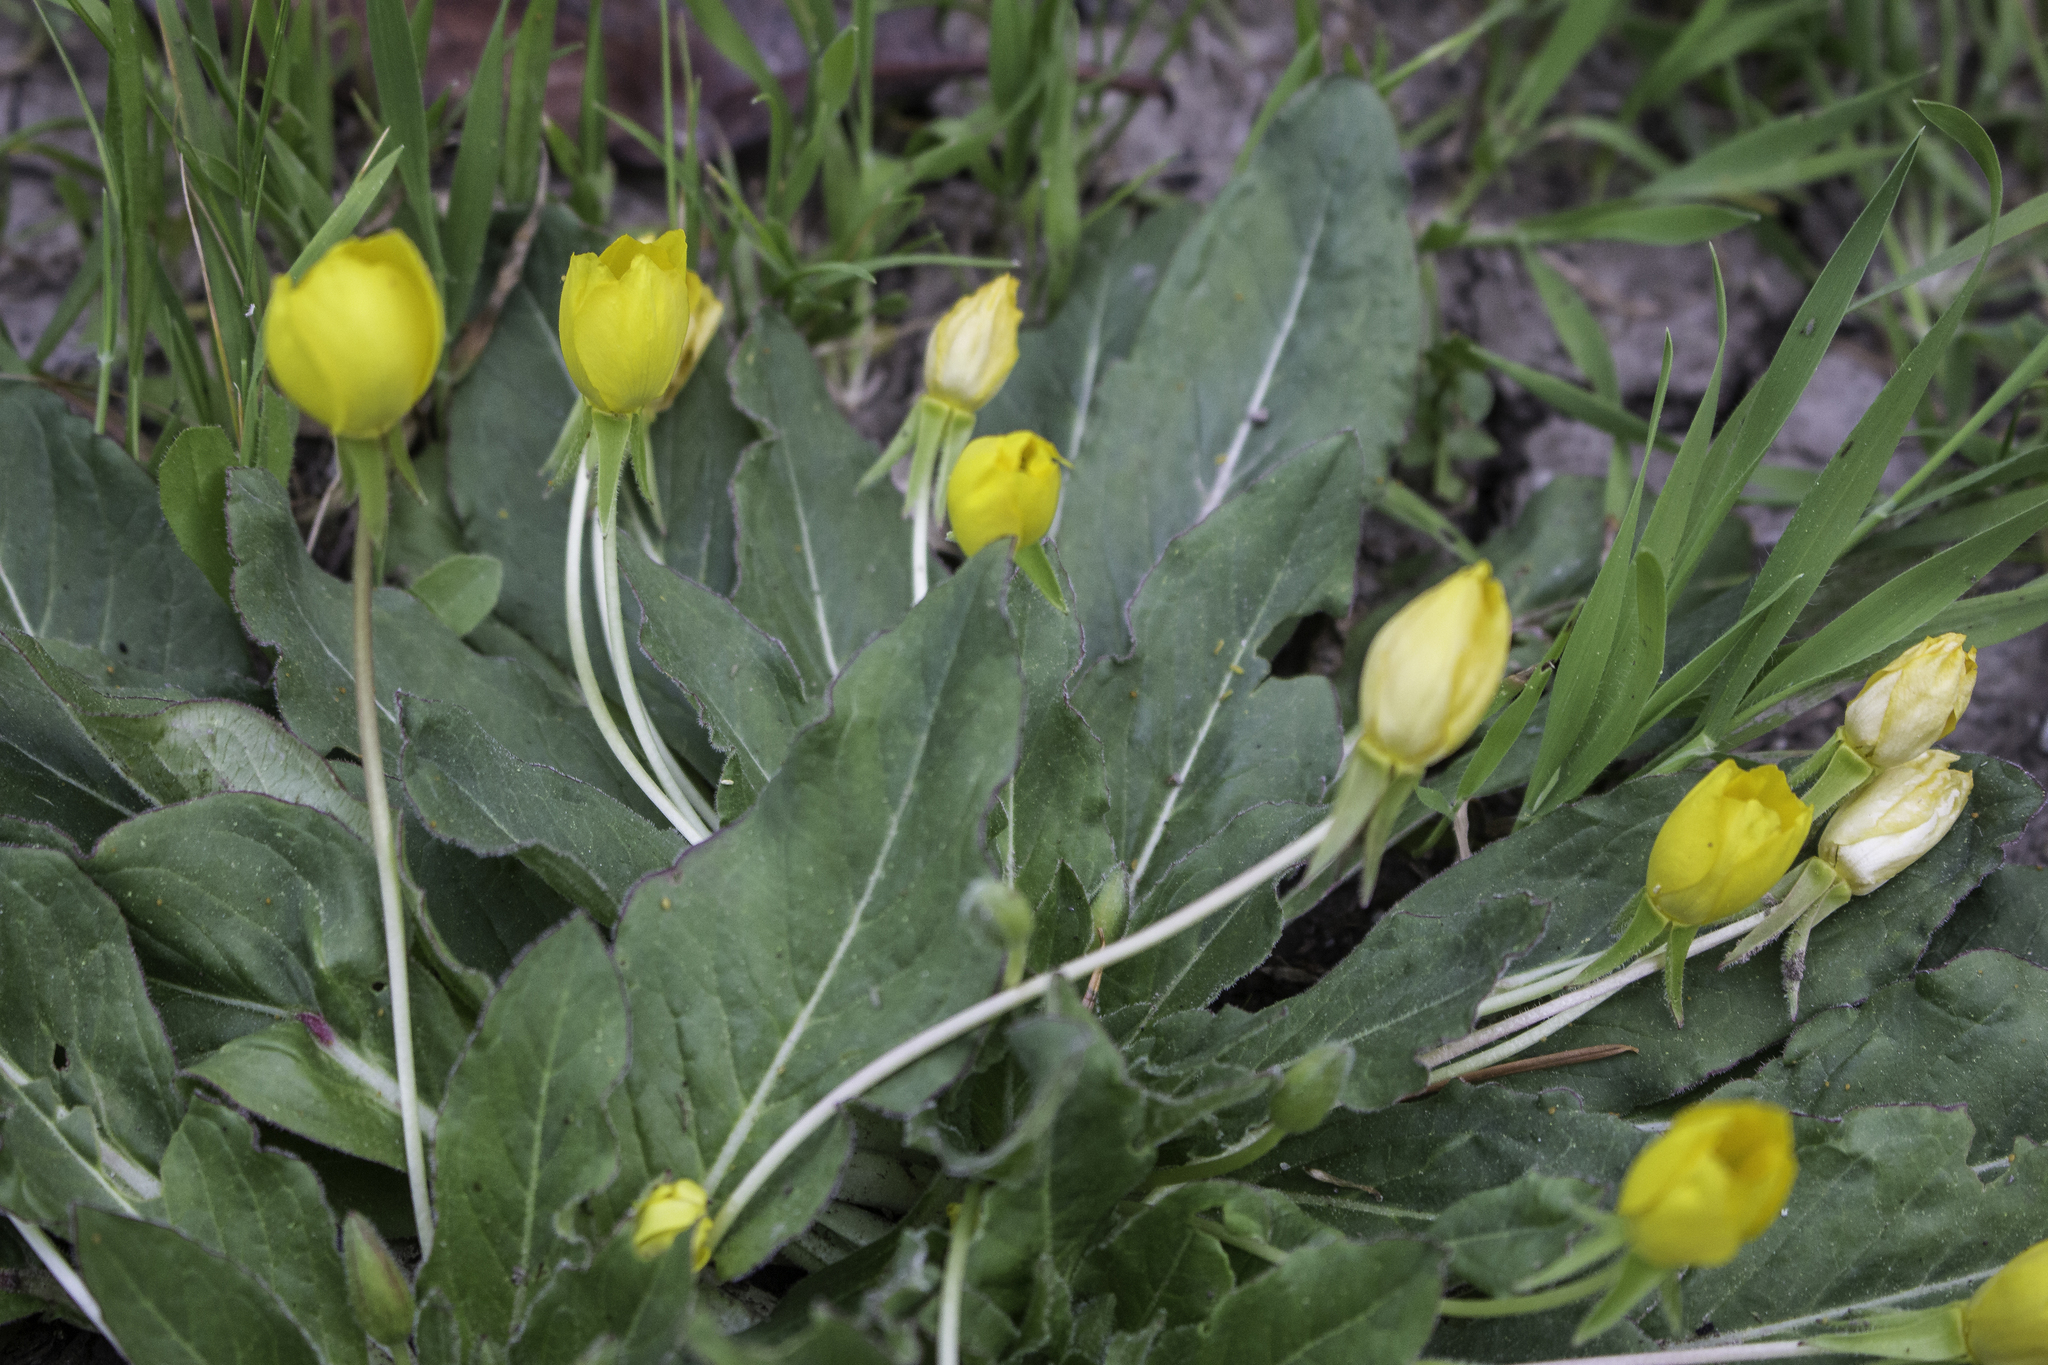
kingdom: Plantae
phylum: Tracheophyta
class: Magnoliopsida
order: Myrtales
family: Onagraceae
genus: Taraxia
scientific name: Taraxia ovata
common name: Goldeneggs
